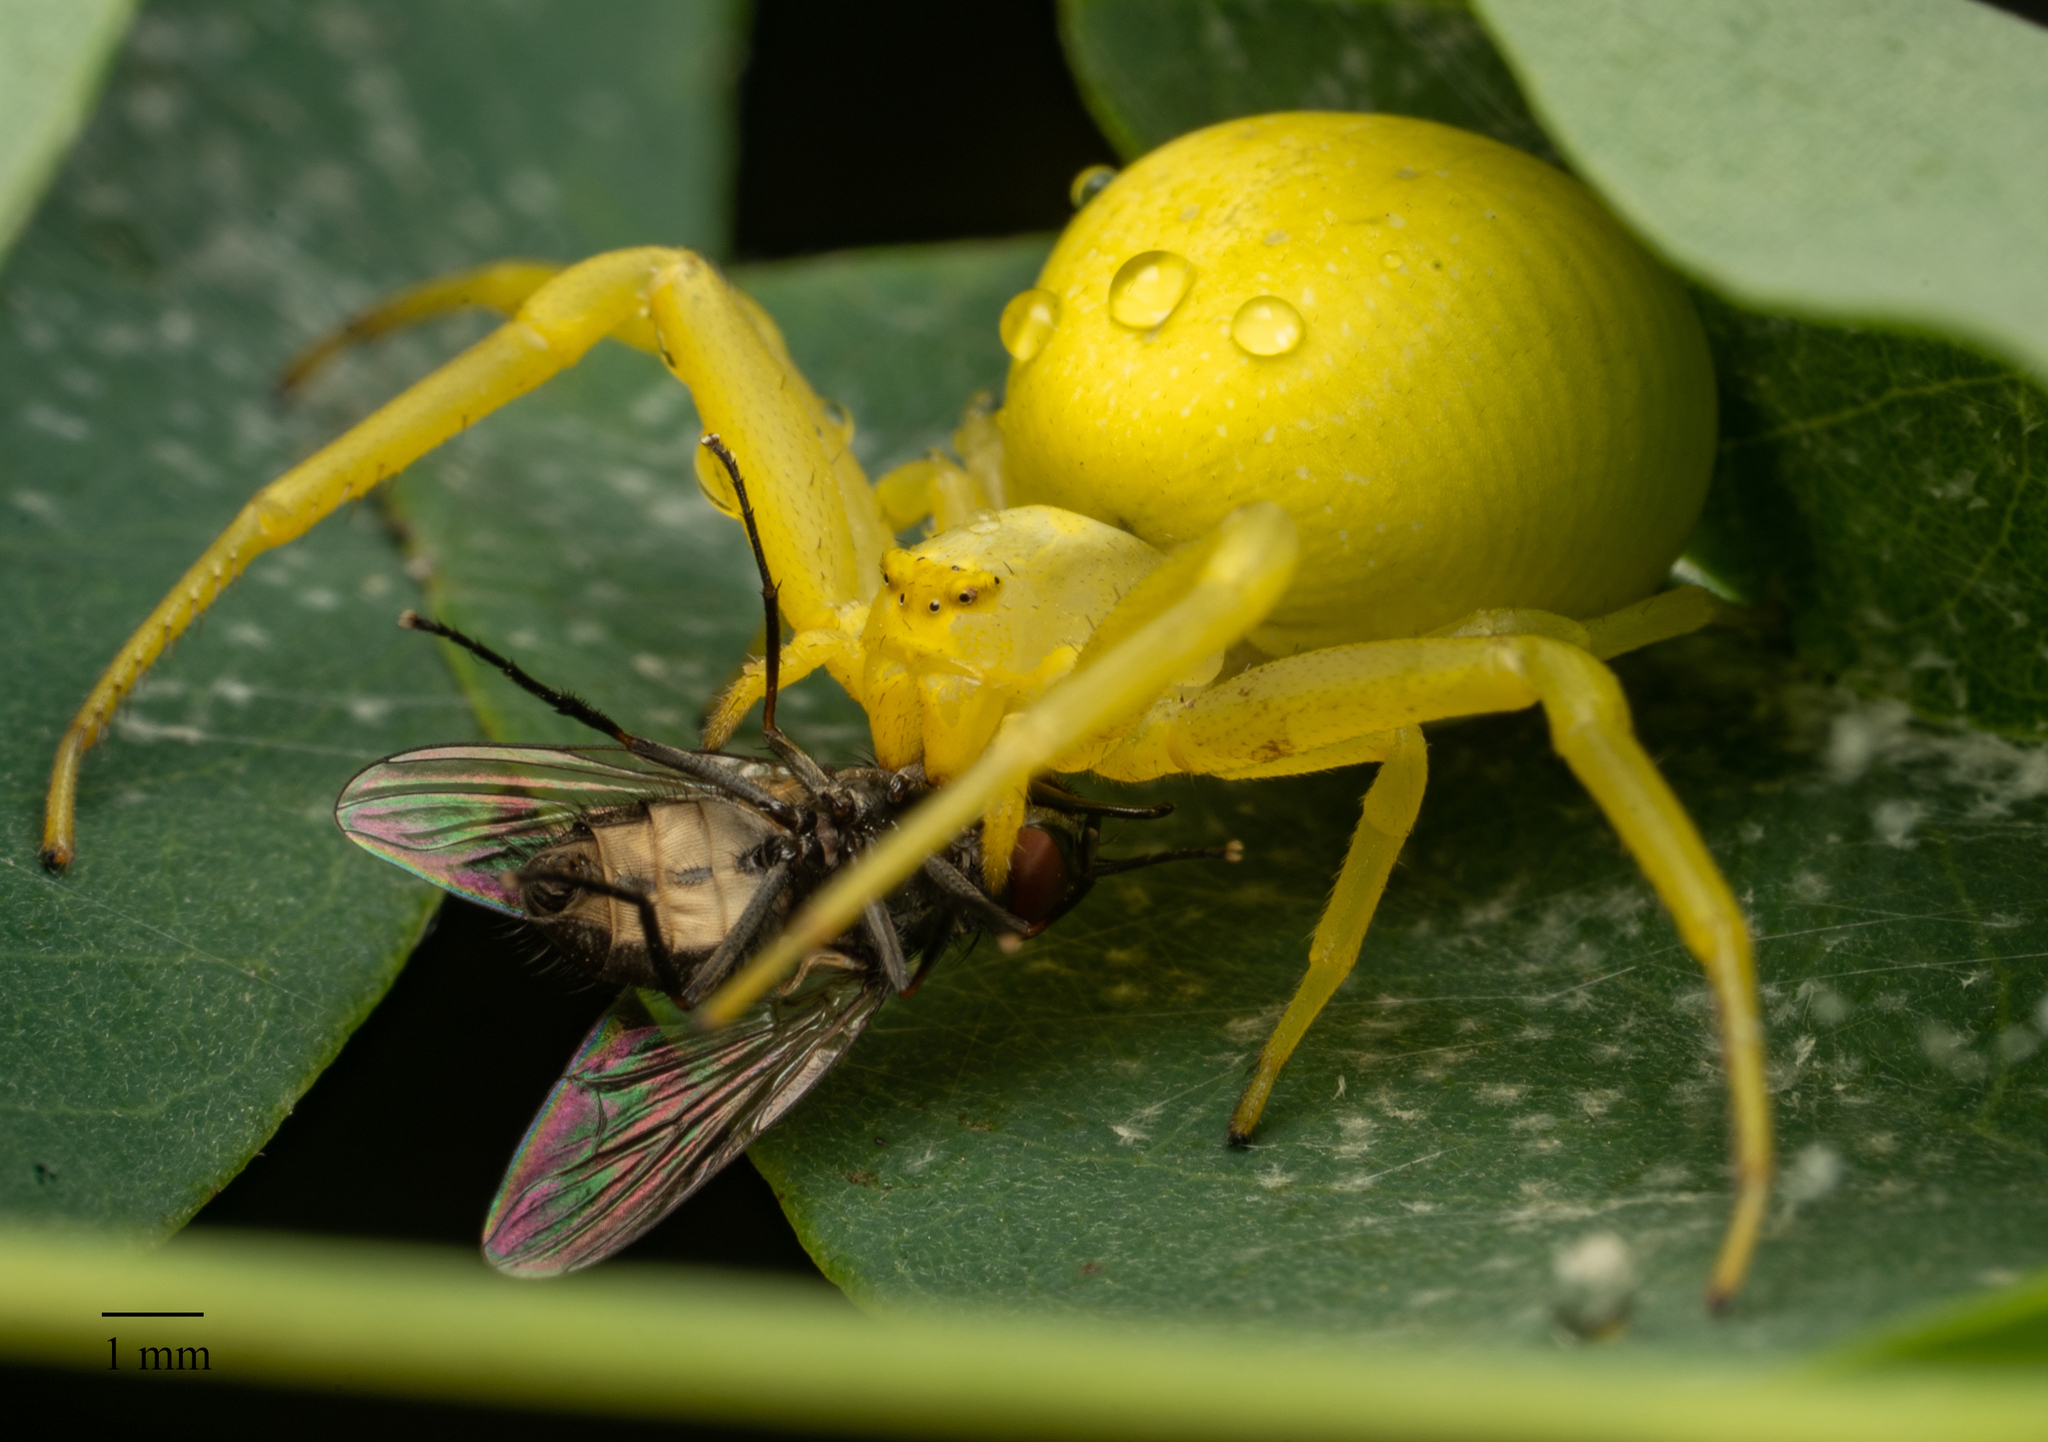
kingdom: Animalia
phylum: Arthropoda
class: Arachnida
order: Araneae
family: Thomisidae
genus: Misumena
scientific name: Misumena vatia
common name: Goldenrod crab spider
